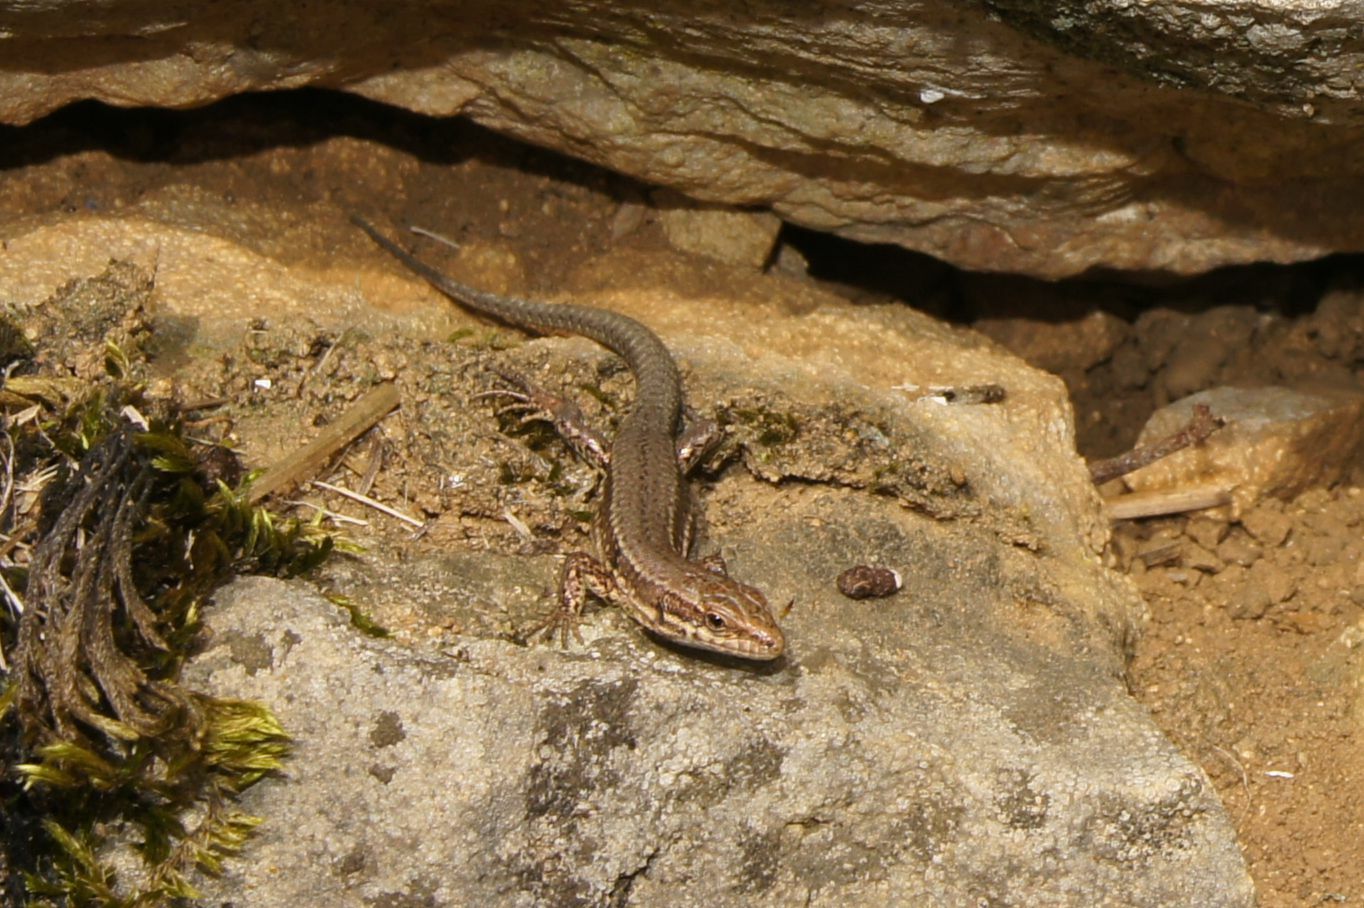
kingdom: Animalia
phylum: Chordata
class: Squamata
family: Lacertidae
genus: Podarcis
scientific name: Podarcis muralis
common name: Common wall lizard
